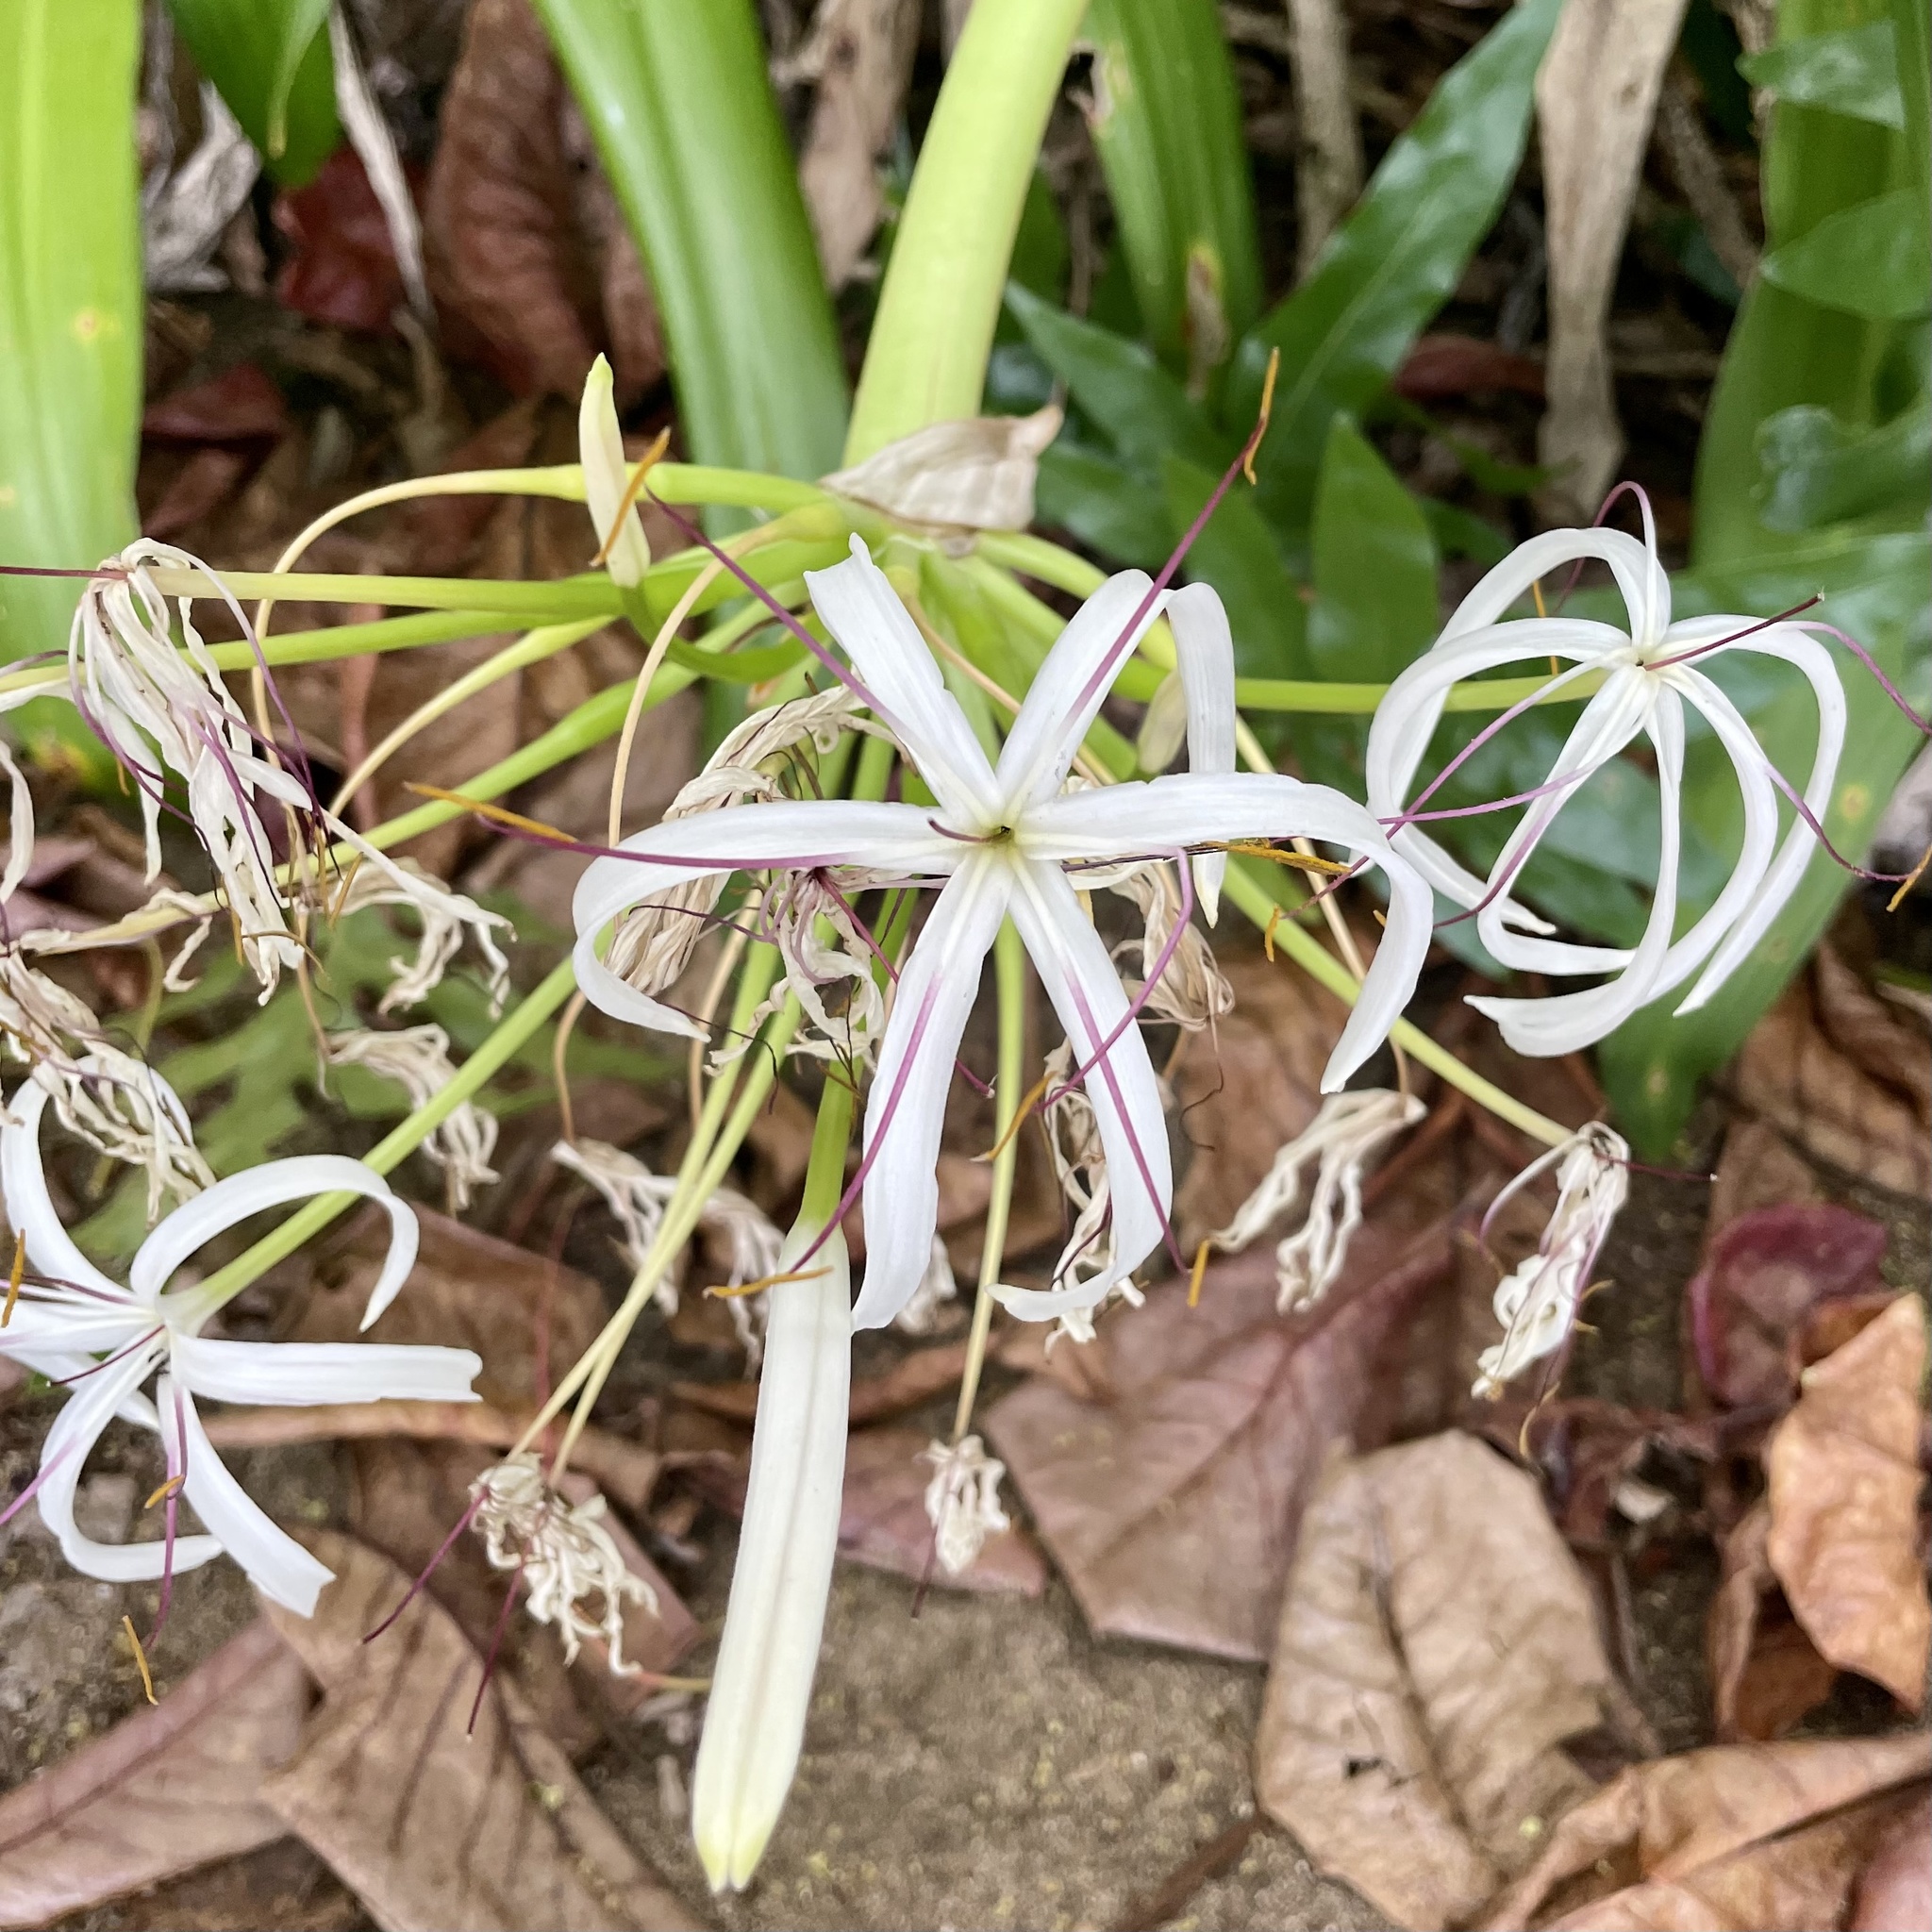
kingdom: Plantae
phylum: Tracheophyta
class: Liliopsida
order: Asparagales
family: Amaryllidaceae
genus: Crinum
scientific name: Crinum asiaticum
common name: Poisonbulb
